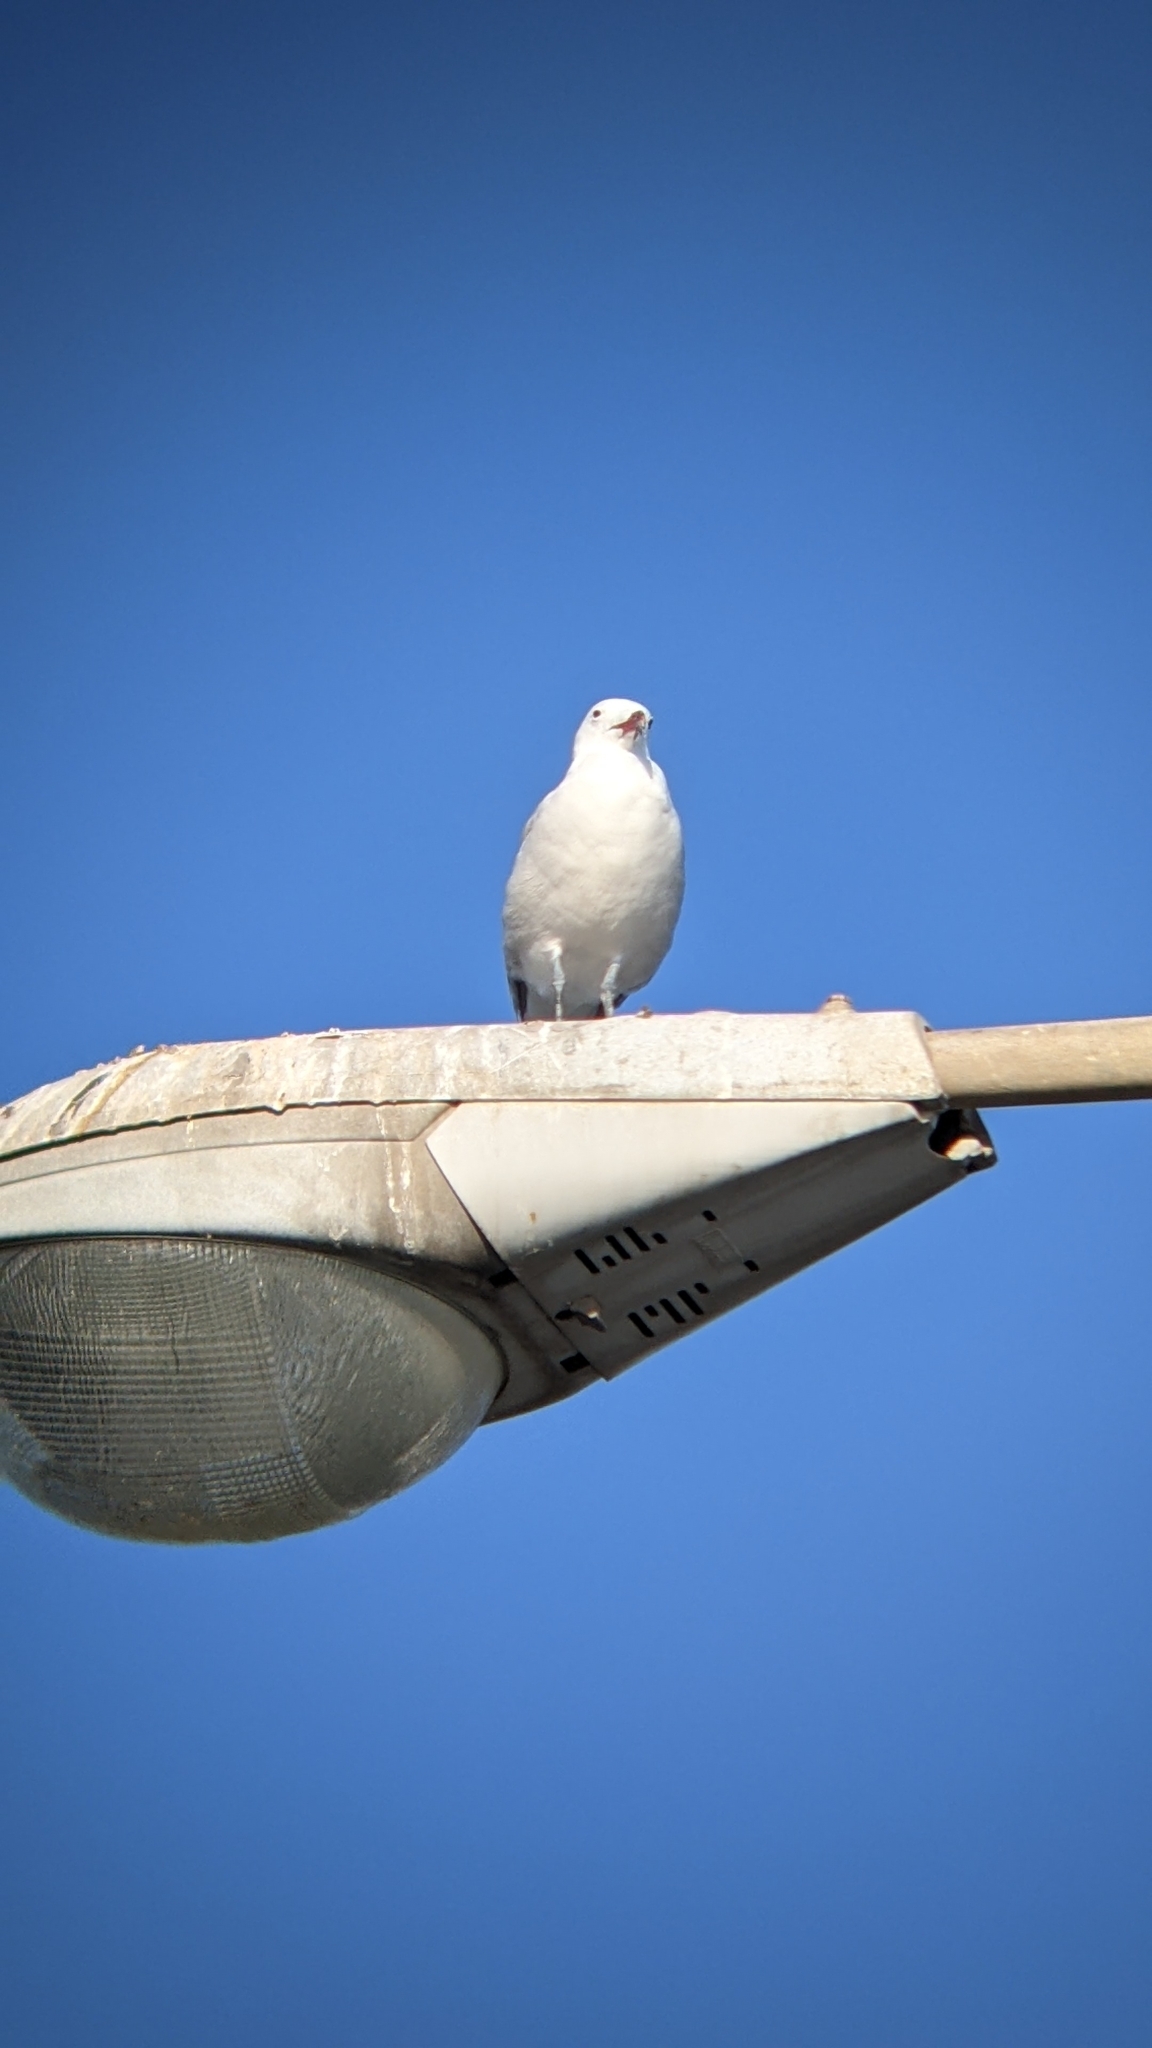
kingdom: Animalia
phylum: Chordata
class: Aves
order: Charadriiformes
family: Laridae
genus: Ichthyaetus
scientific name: Ichthyaetus audouinii
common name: Audouin's gull
